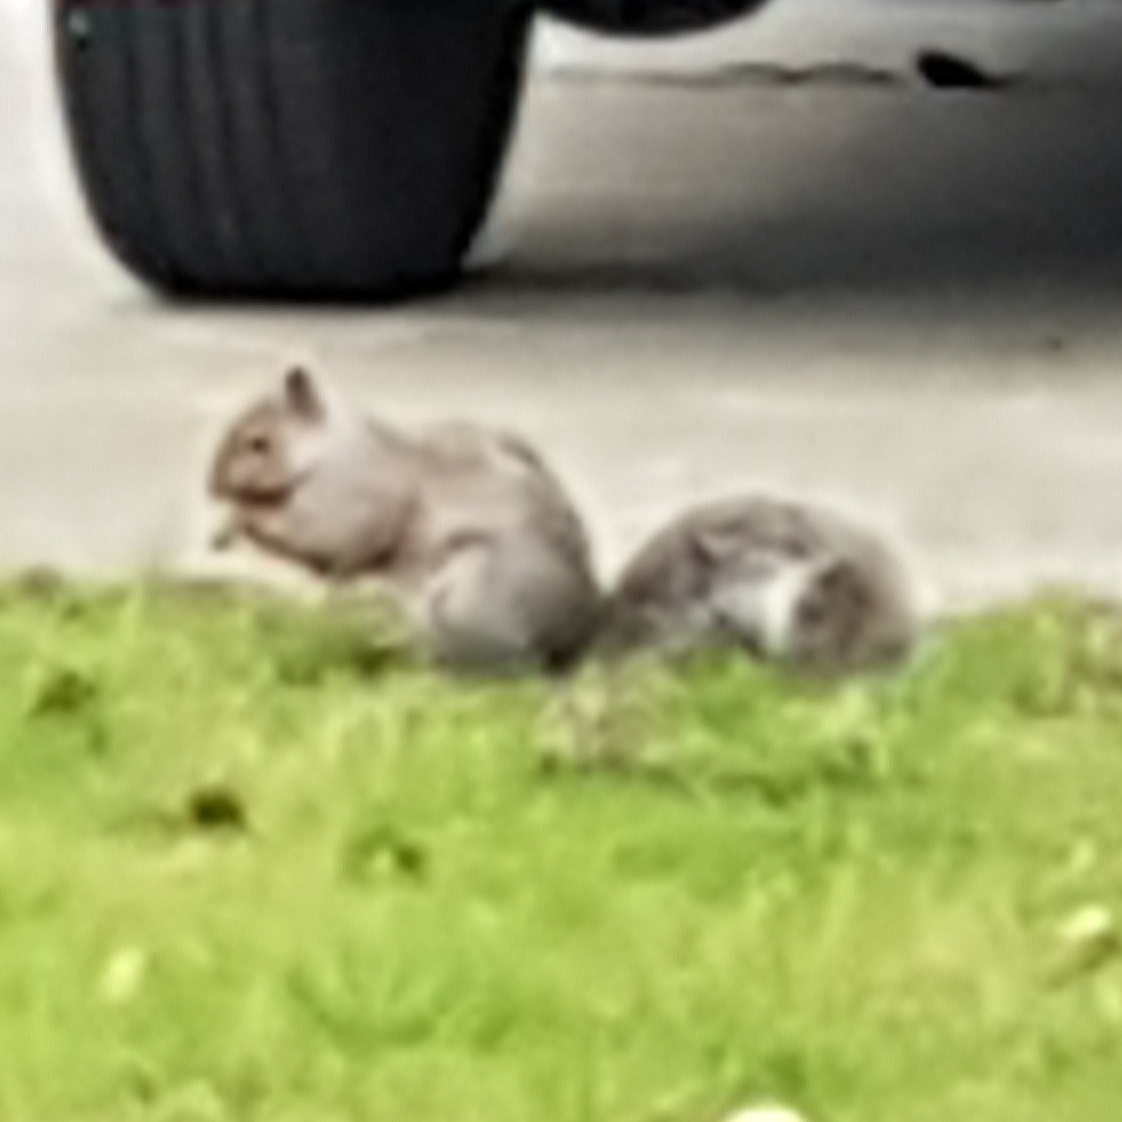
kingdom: Animalia
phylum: Chordata
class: Mammalia
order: Rodentia
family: Sciuridae
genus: Sciurus
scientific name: Sciurus carolinensis
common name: Eastern gray squirrel
